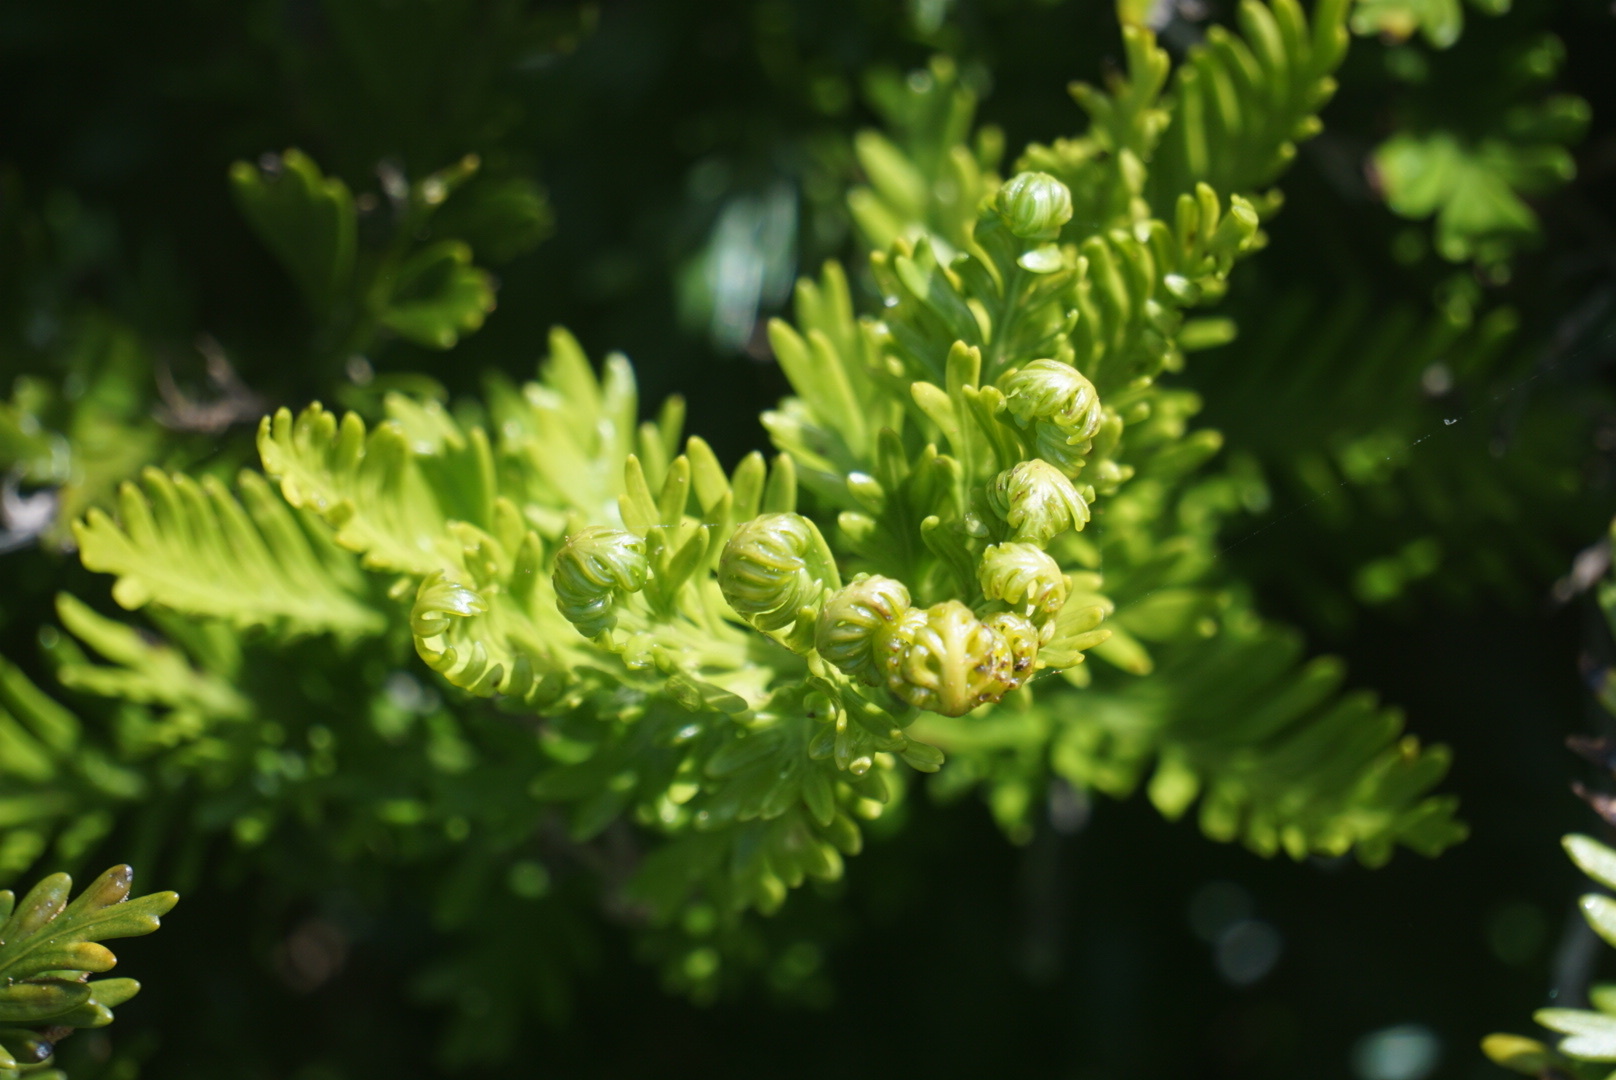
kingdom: Plantae
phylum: Tracheophyta
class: Polypodiopsida
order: Polypodiales
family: Aspleniaceae
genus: Asplenium
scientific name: Asplenium chathamense
